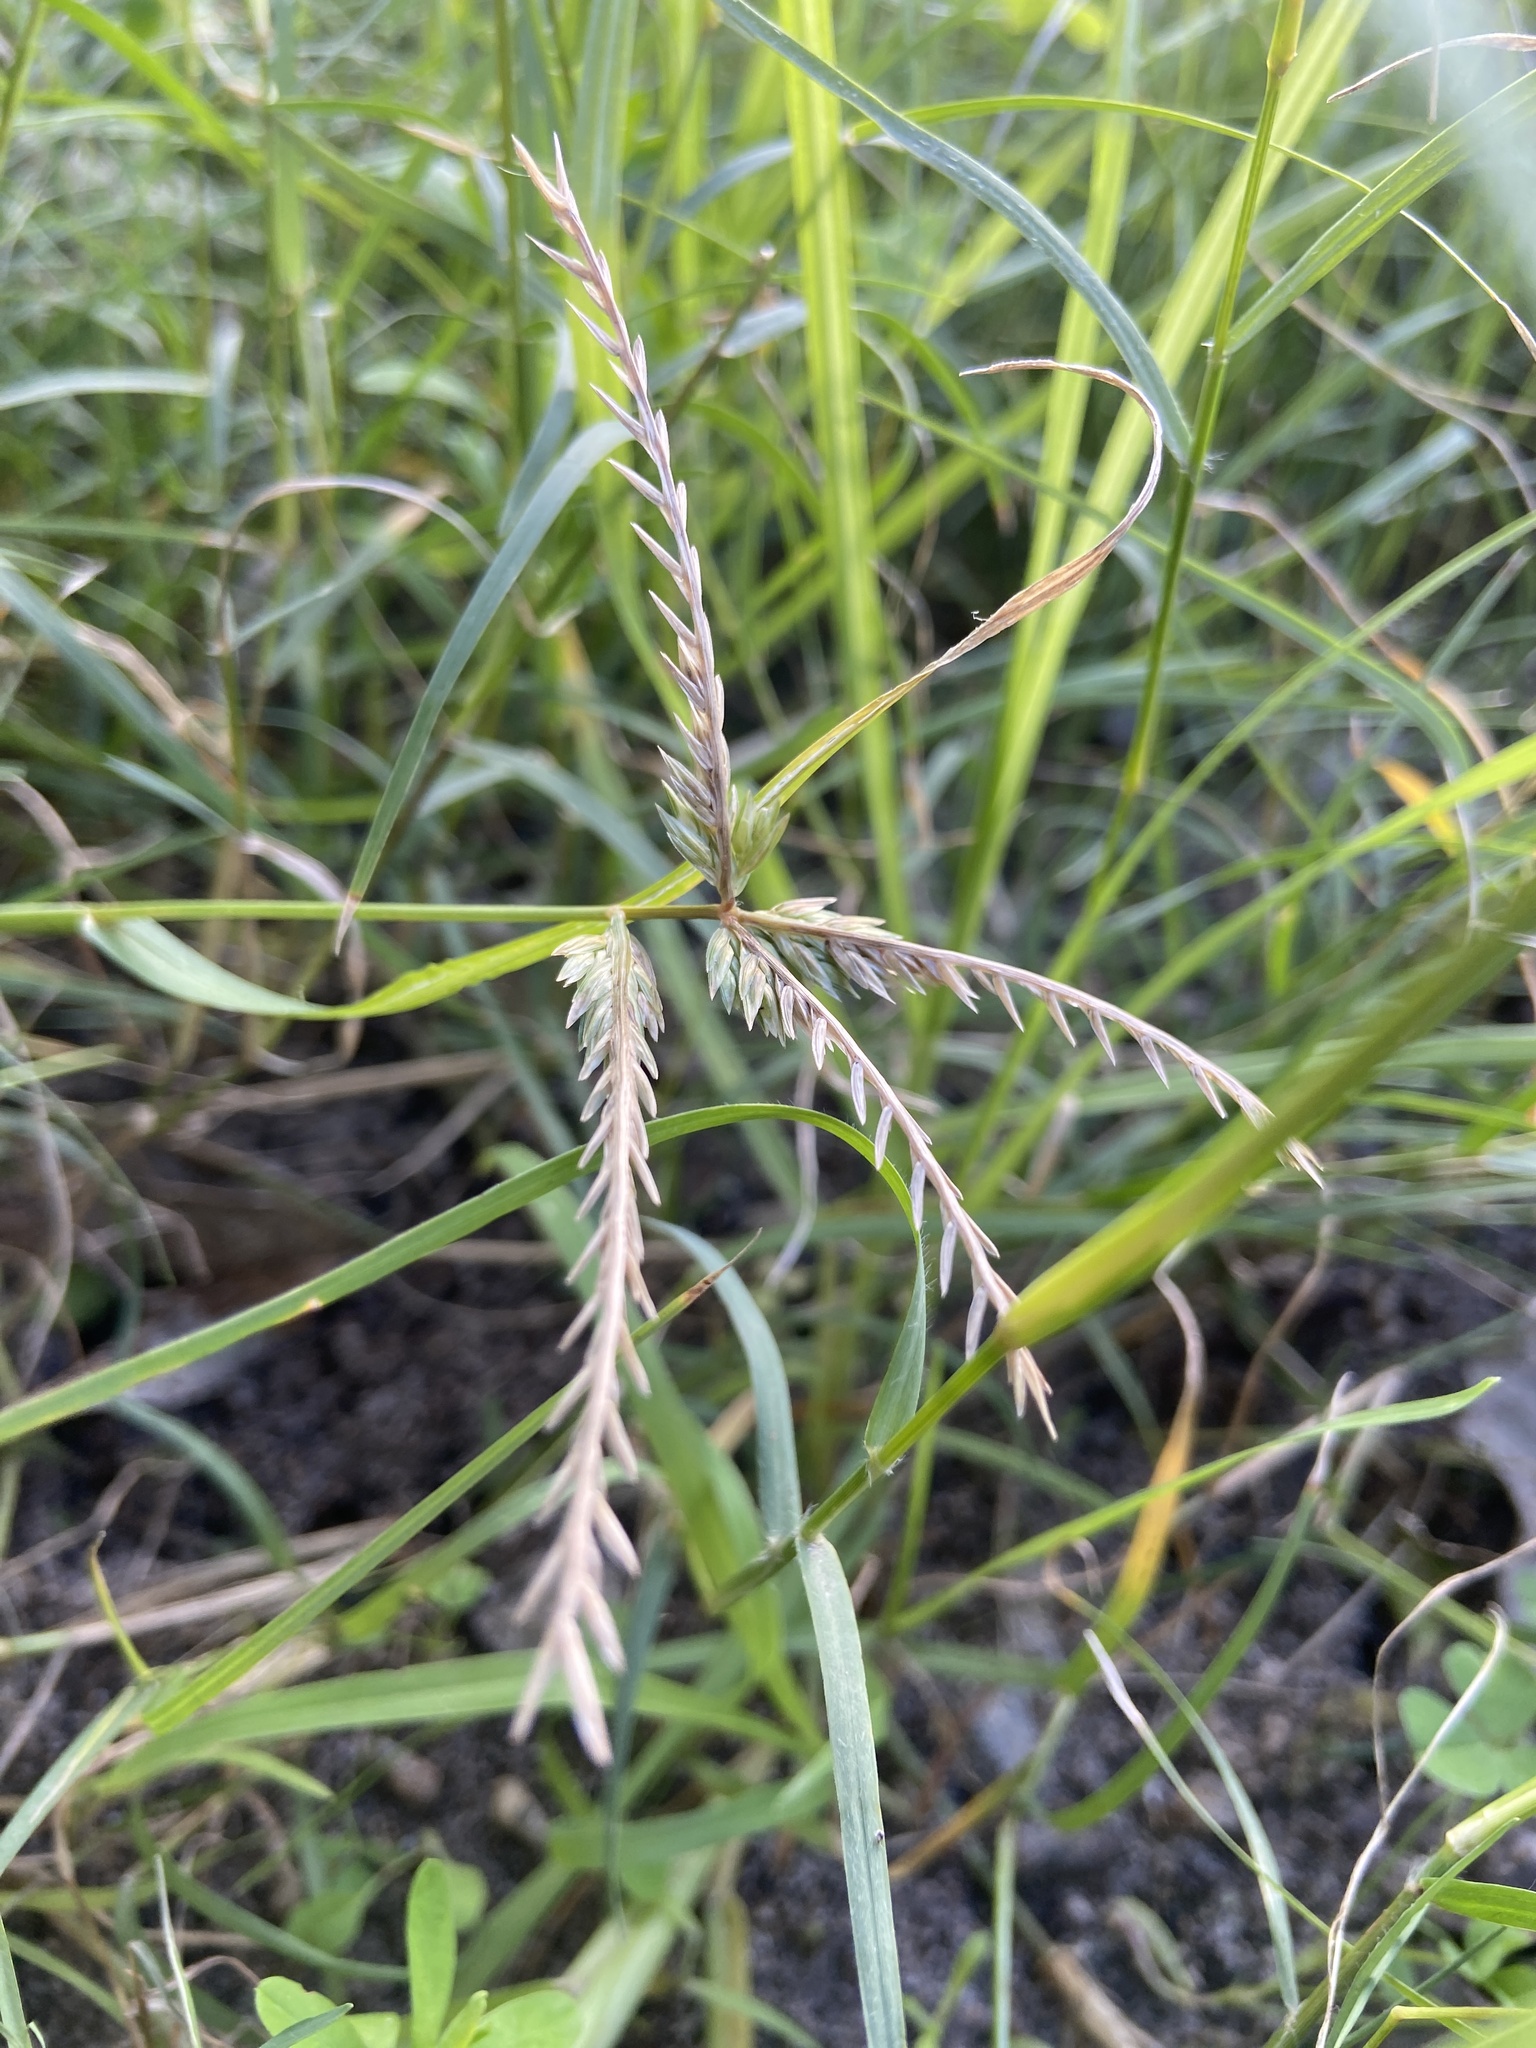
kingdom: Plantae
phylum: Tracheophyta
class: Liliopsida
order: Poales
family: Poaceae
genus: Eleusine
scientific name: Eleusine indica
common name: Yard-grass
